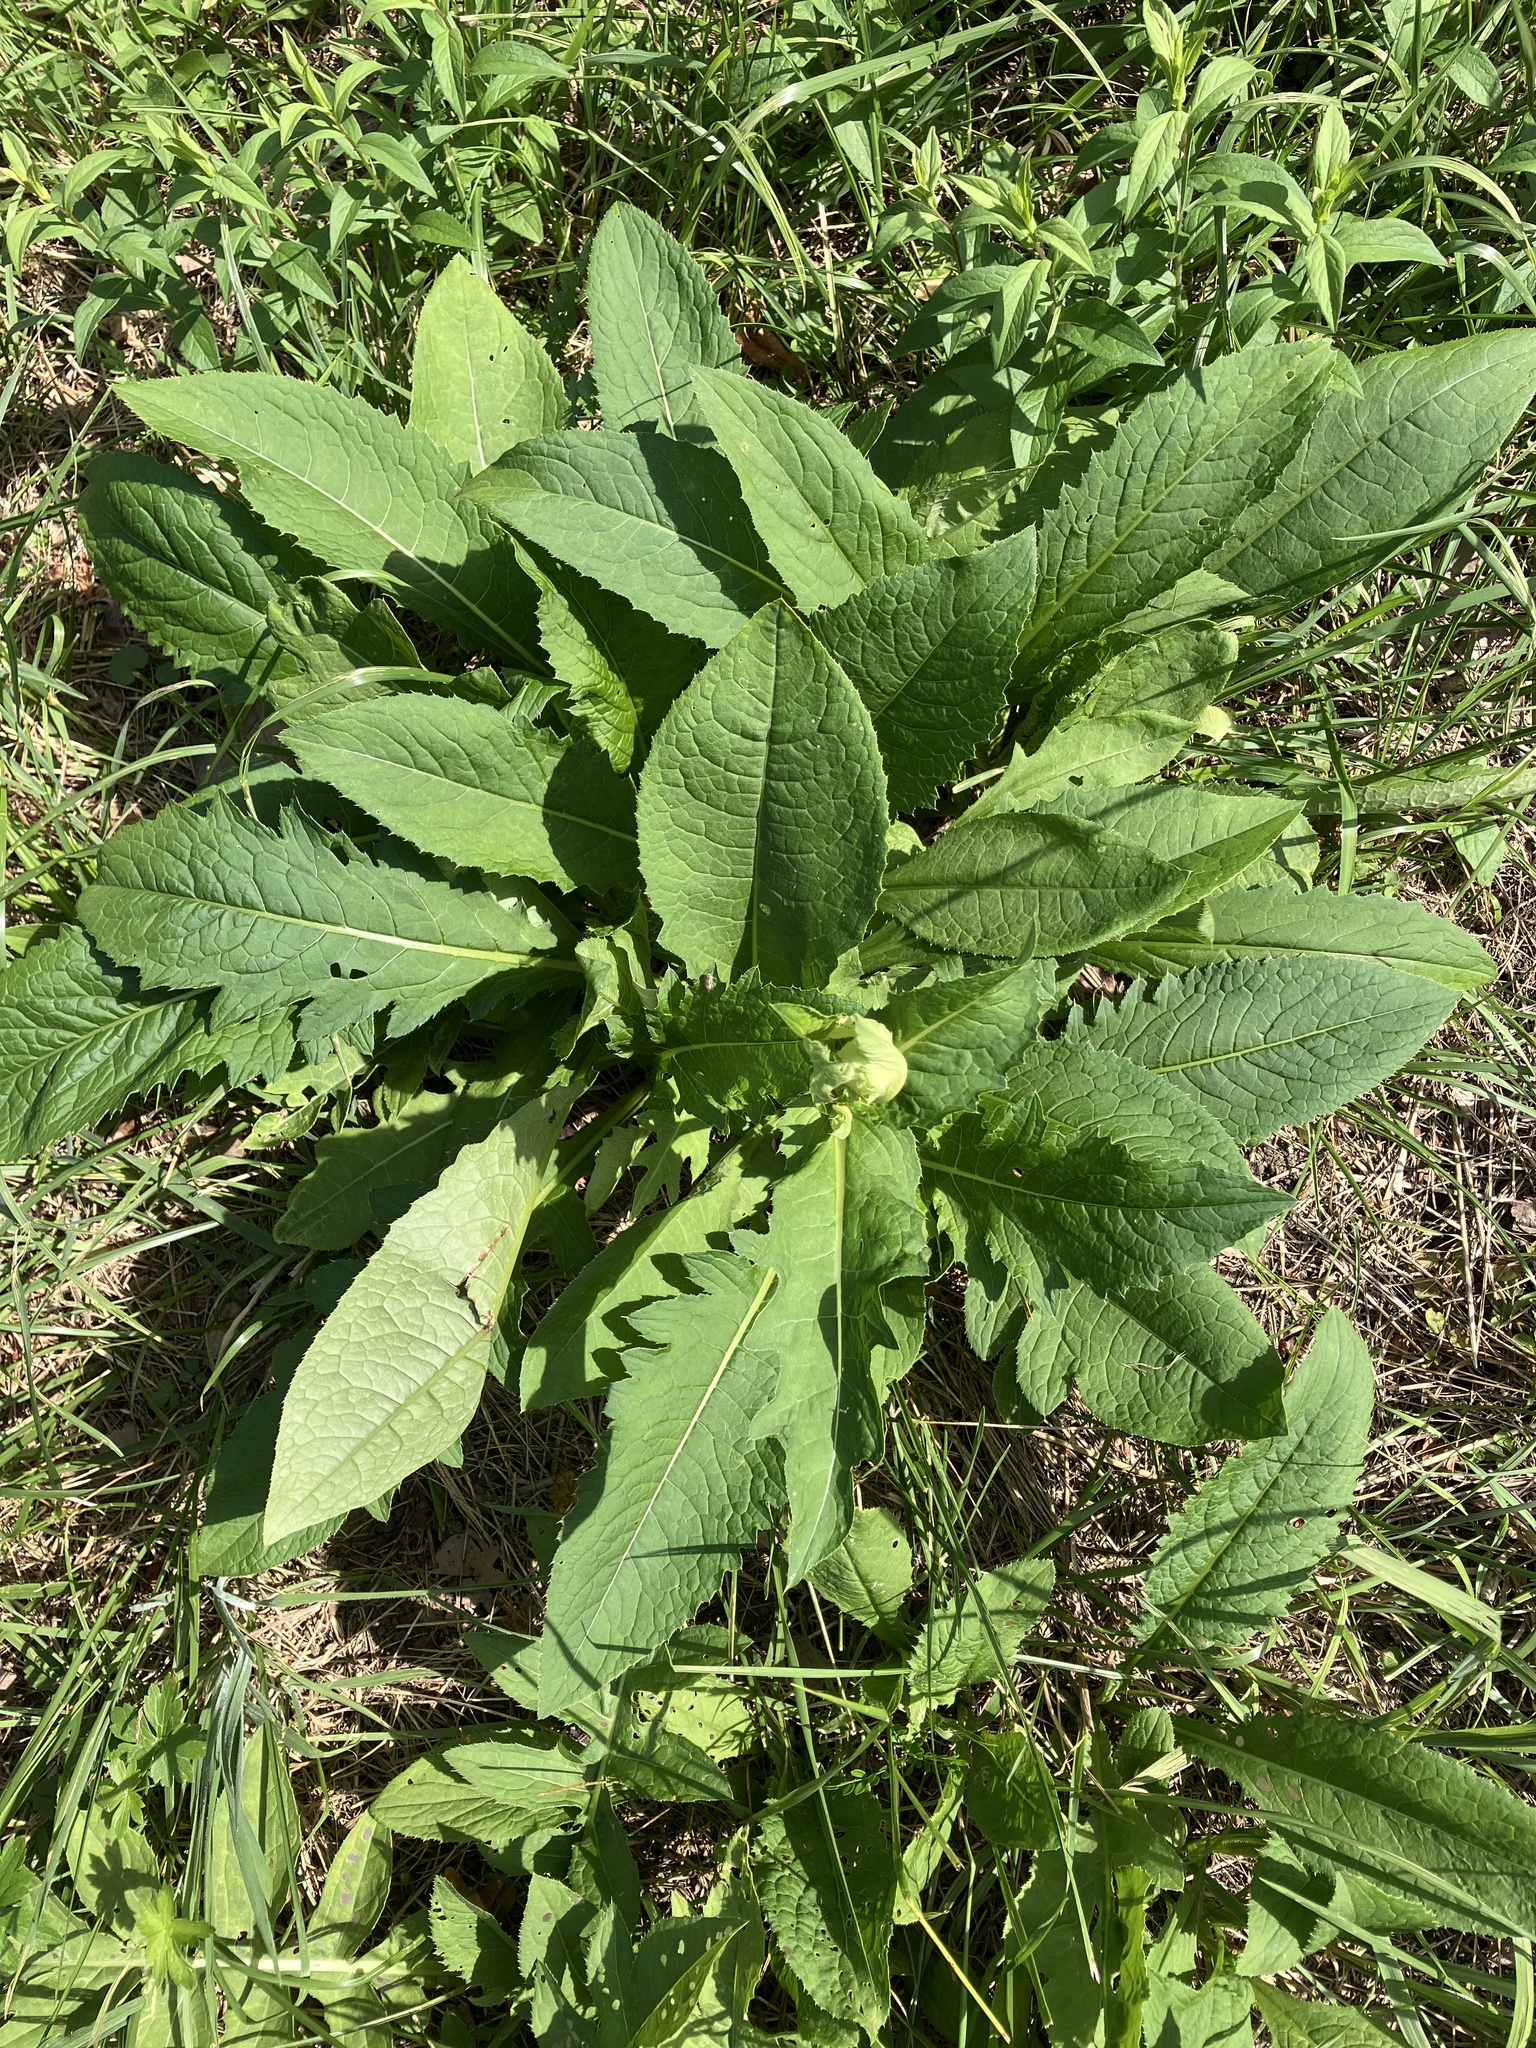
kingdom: Plantae
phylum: Tracheophyta
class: Magnoliopsida
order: Asterales
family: Asteraceae
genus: Cirsium
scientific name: Cirsium oleraceum
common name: Cabbage thistle
